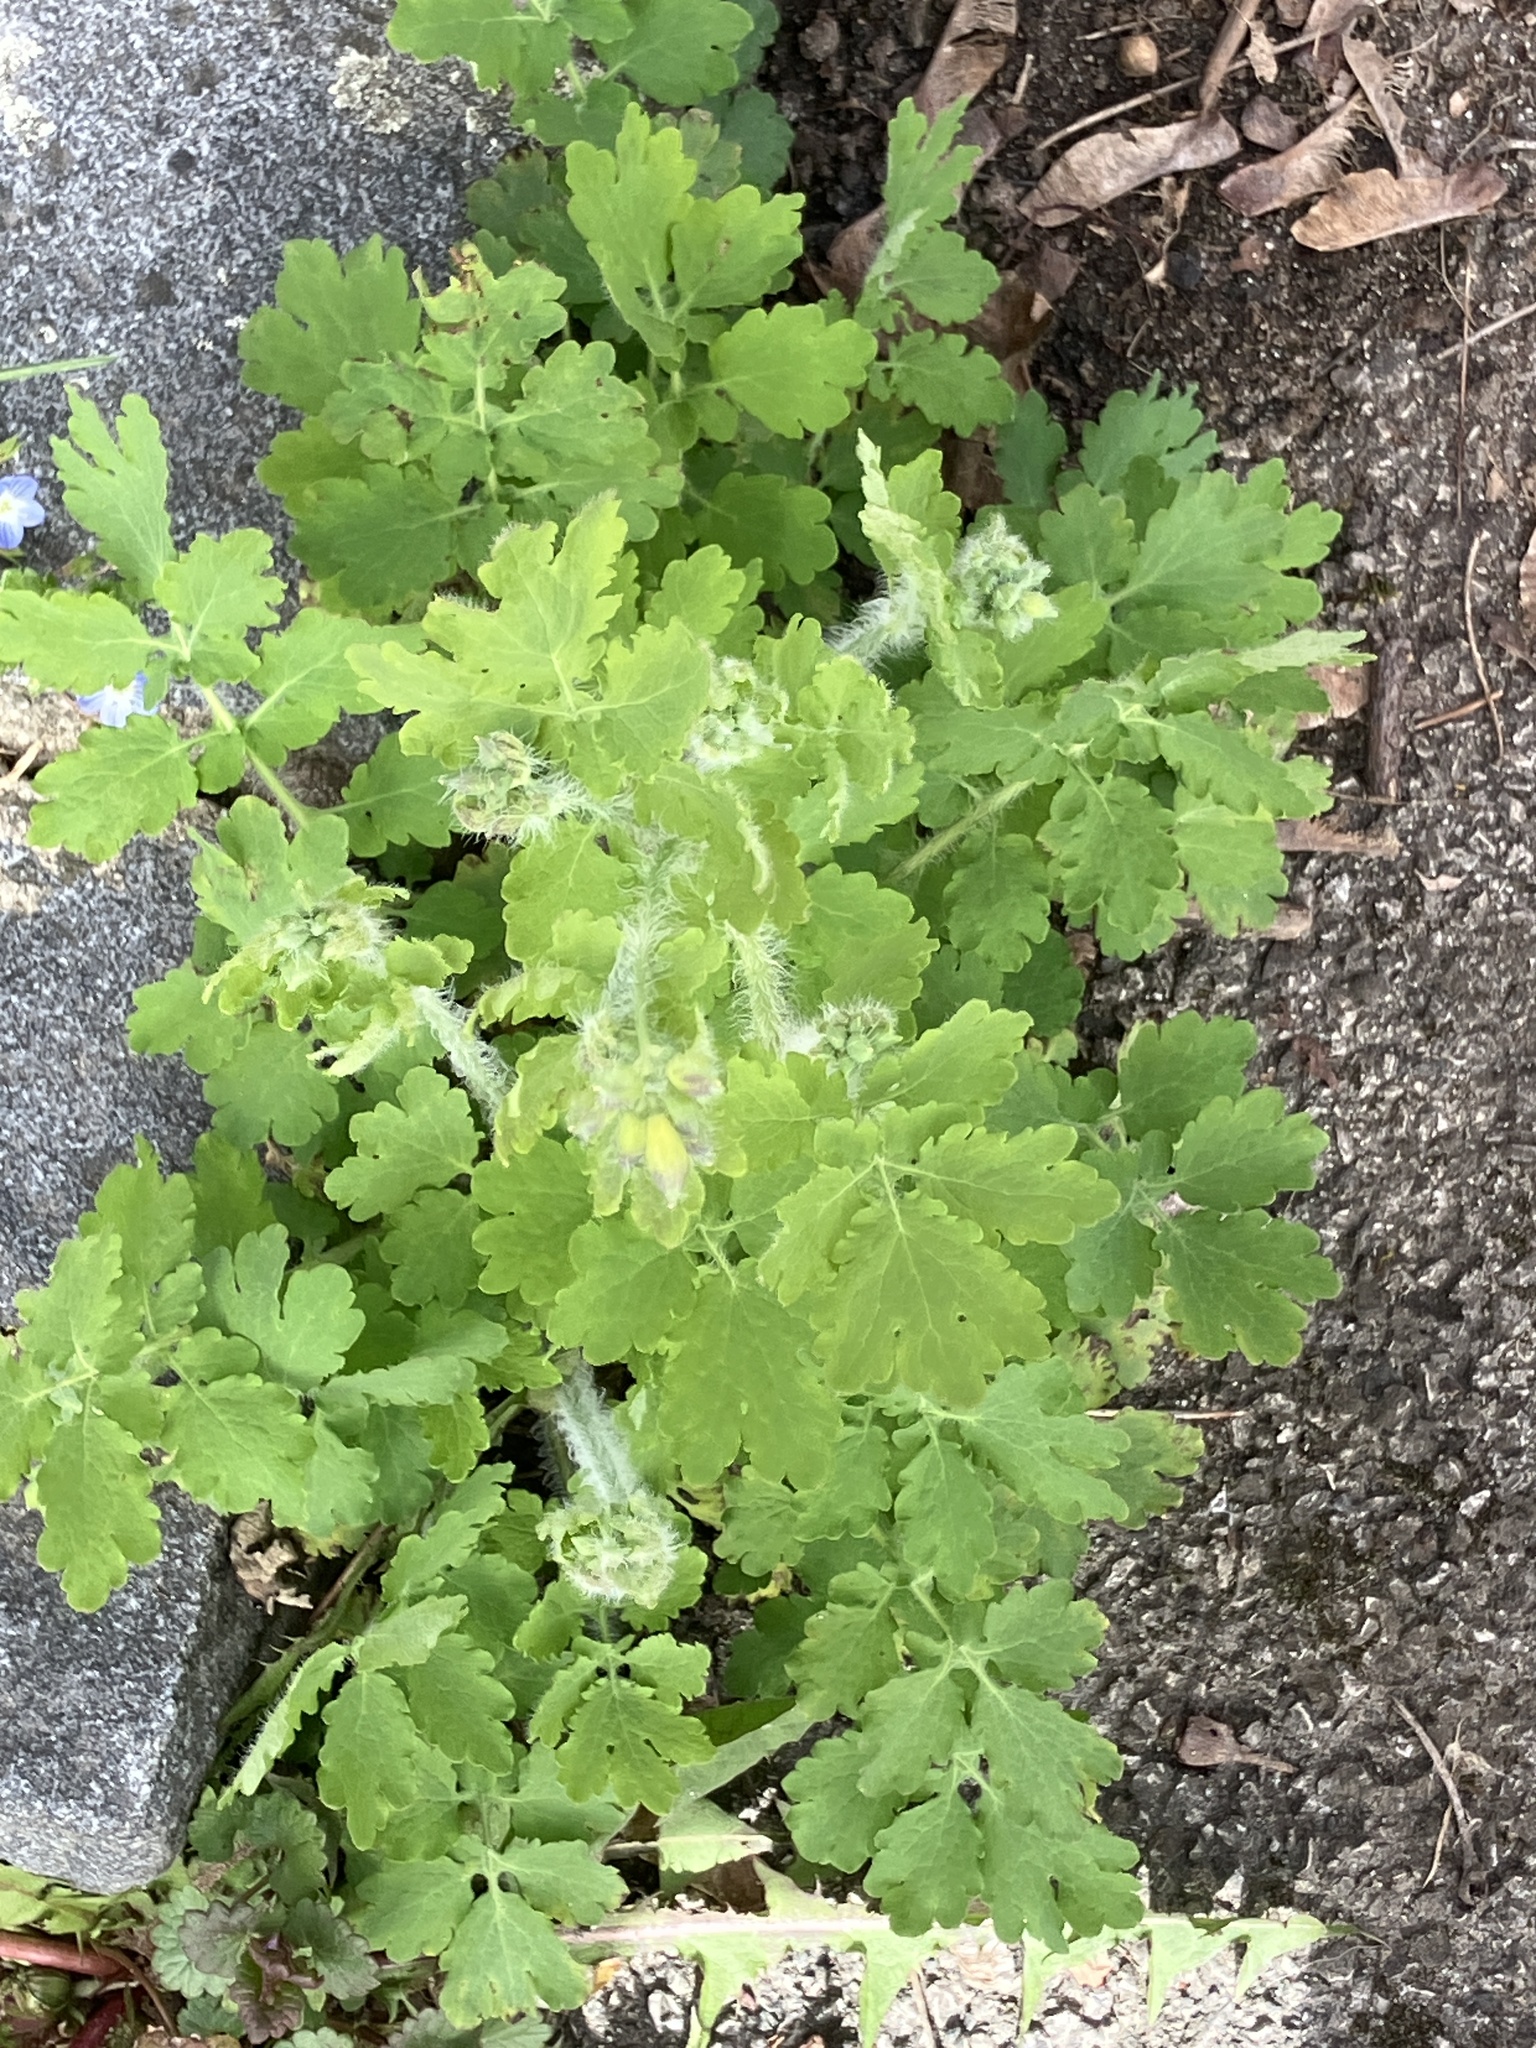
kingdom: Plantae
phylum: Tracheophyta
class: Magnoliopsida
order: Ranunculales
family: Papaveraceae
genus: Chelidonium
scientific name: Chelidonium majus
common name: Greater celandine
